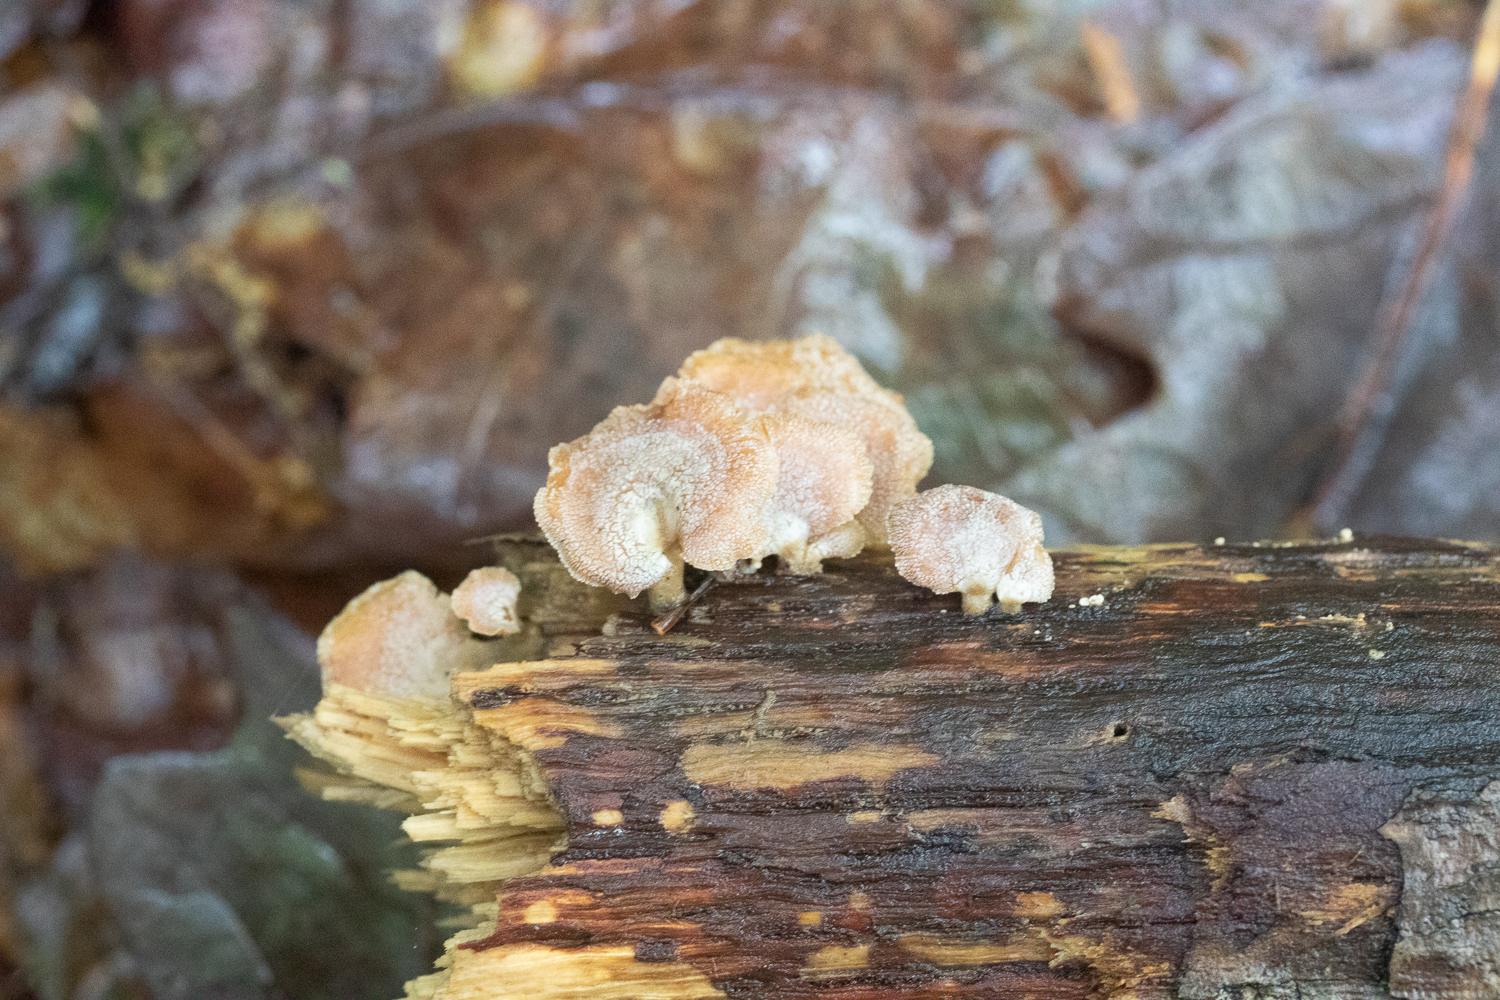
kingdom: Fungi
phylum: Basidiomycota
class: Agaricomycetes
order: Agaricales
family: Mycenaceae
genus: Panellus
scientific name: Panellus stipticus
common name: Bitter oysterling
